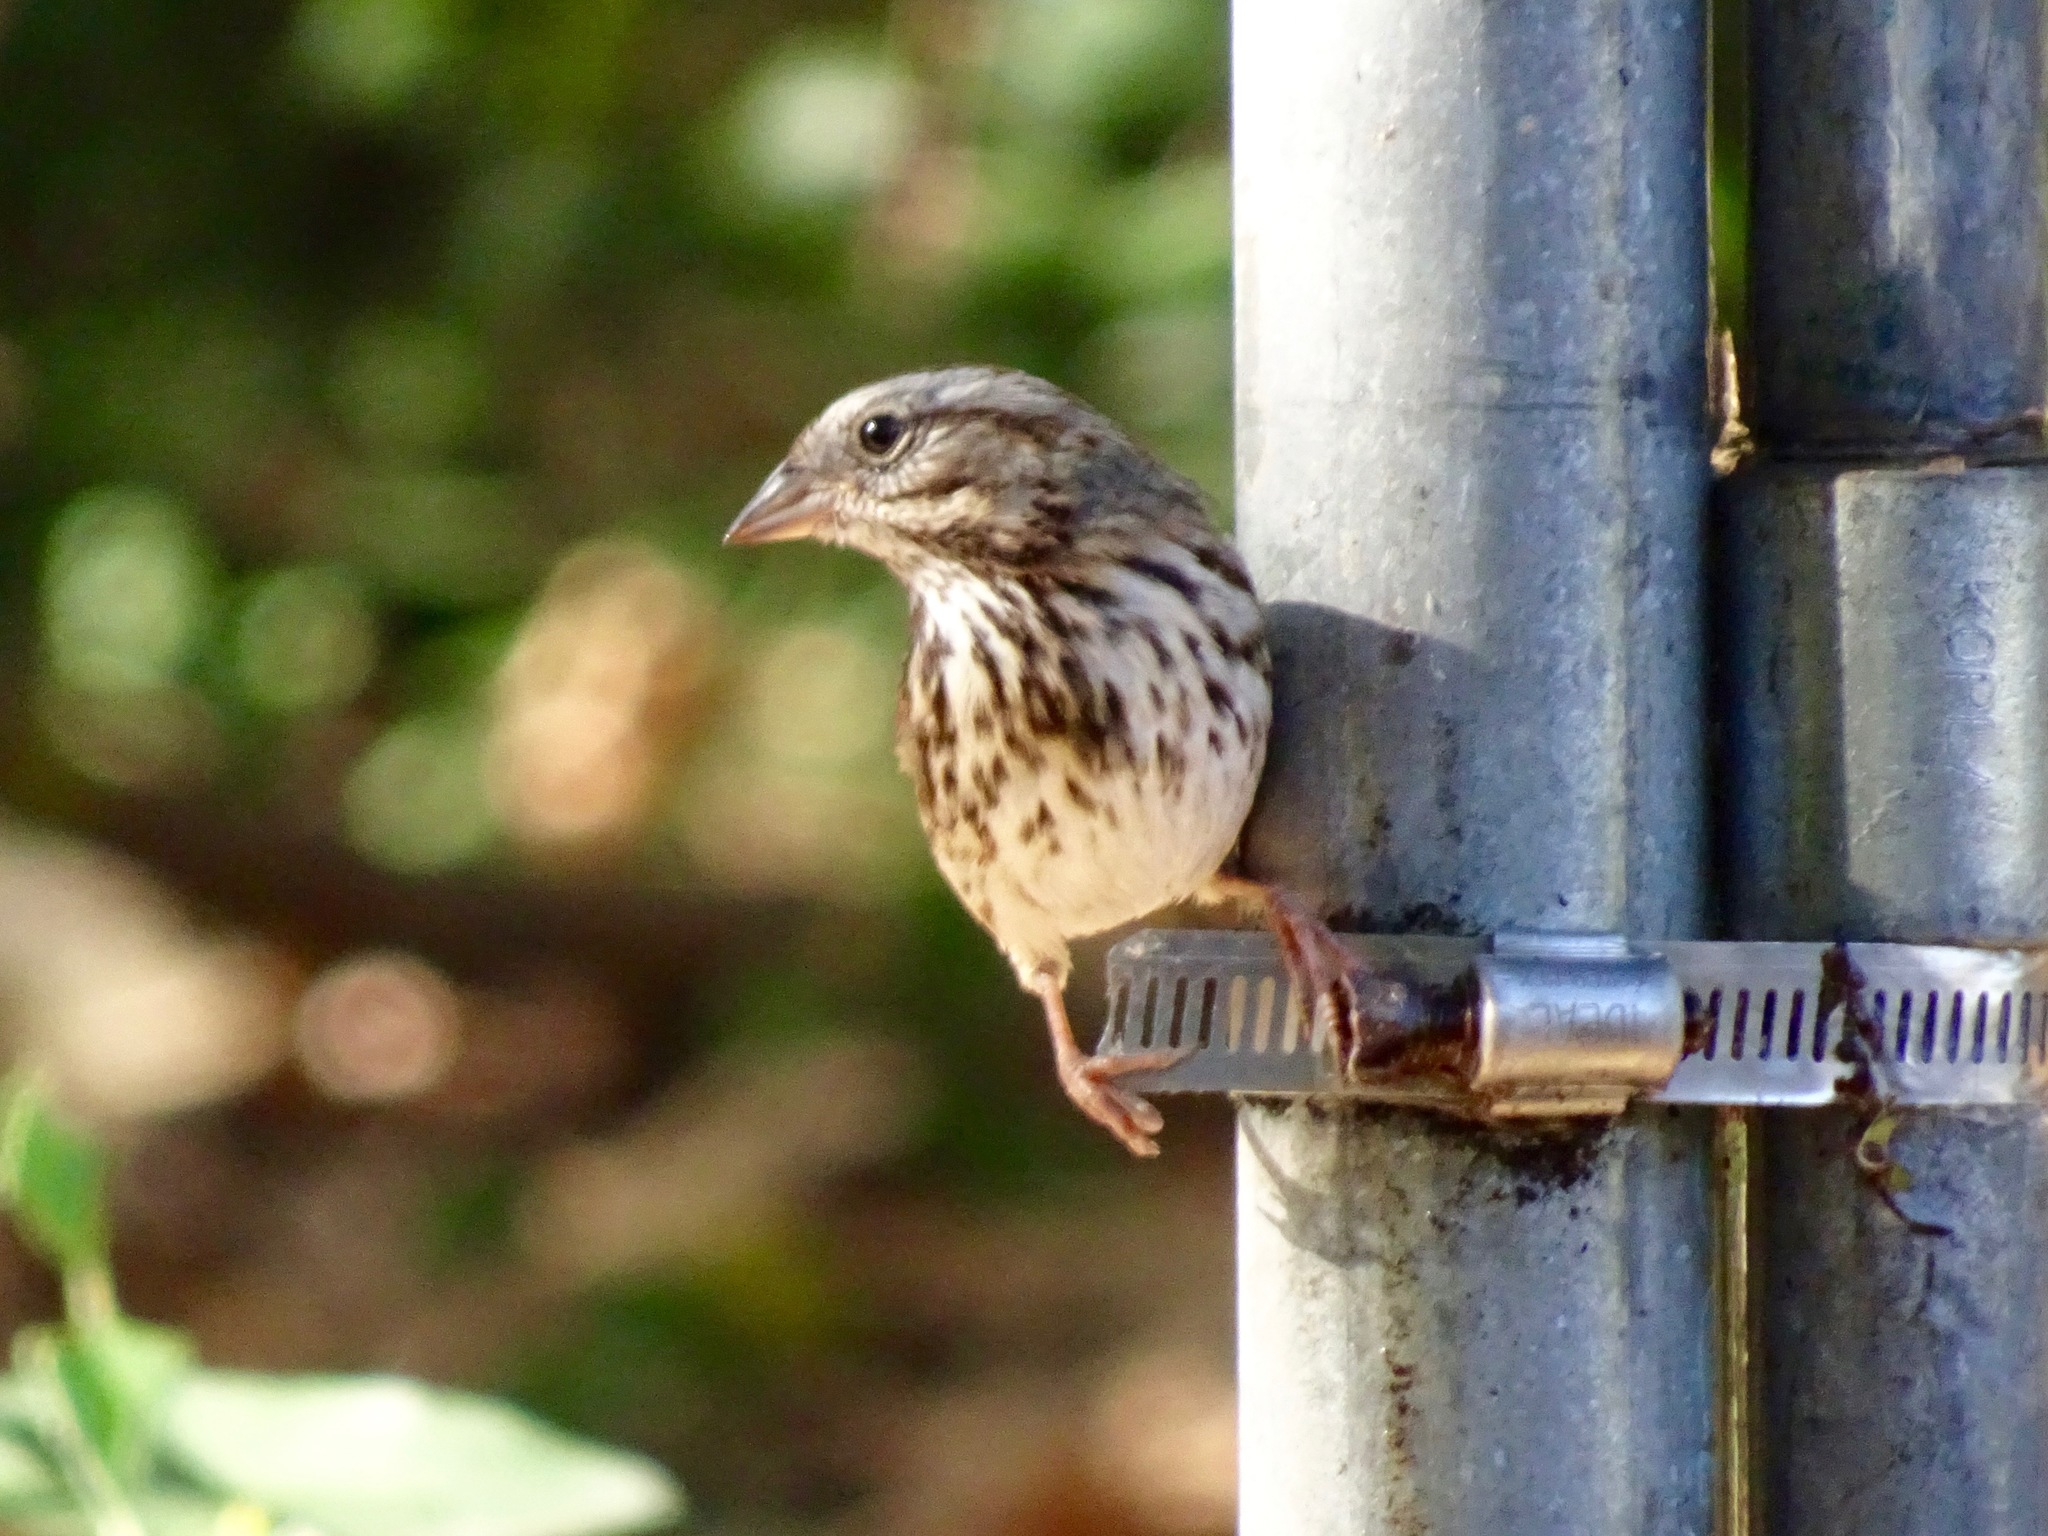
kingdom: Animalia
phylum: Chordata
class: Aves
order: Passeriformes
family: Passerellidae
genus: Melospiza
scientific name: Melospiza melodia
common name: Song sparrow
